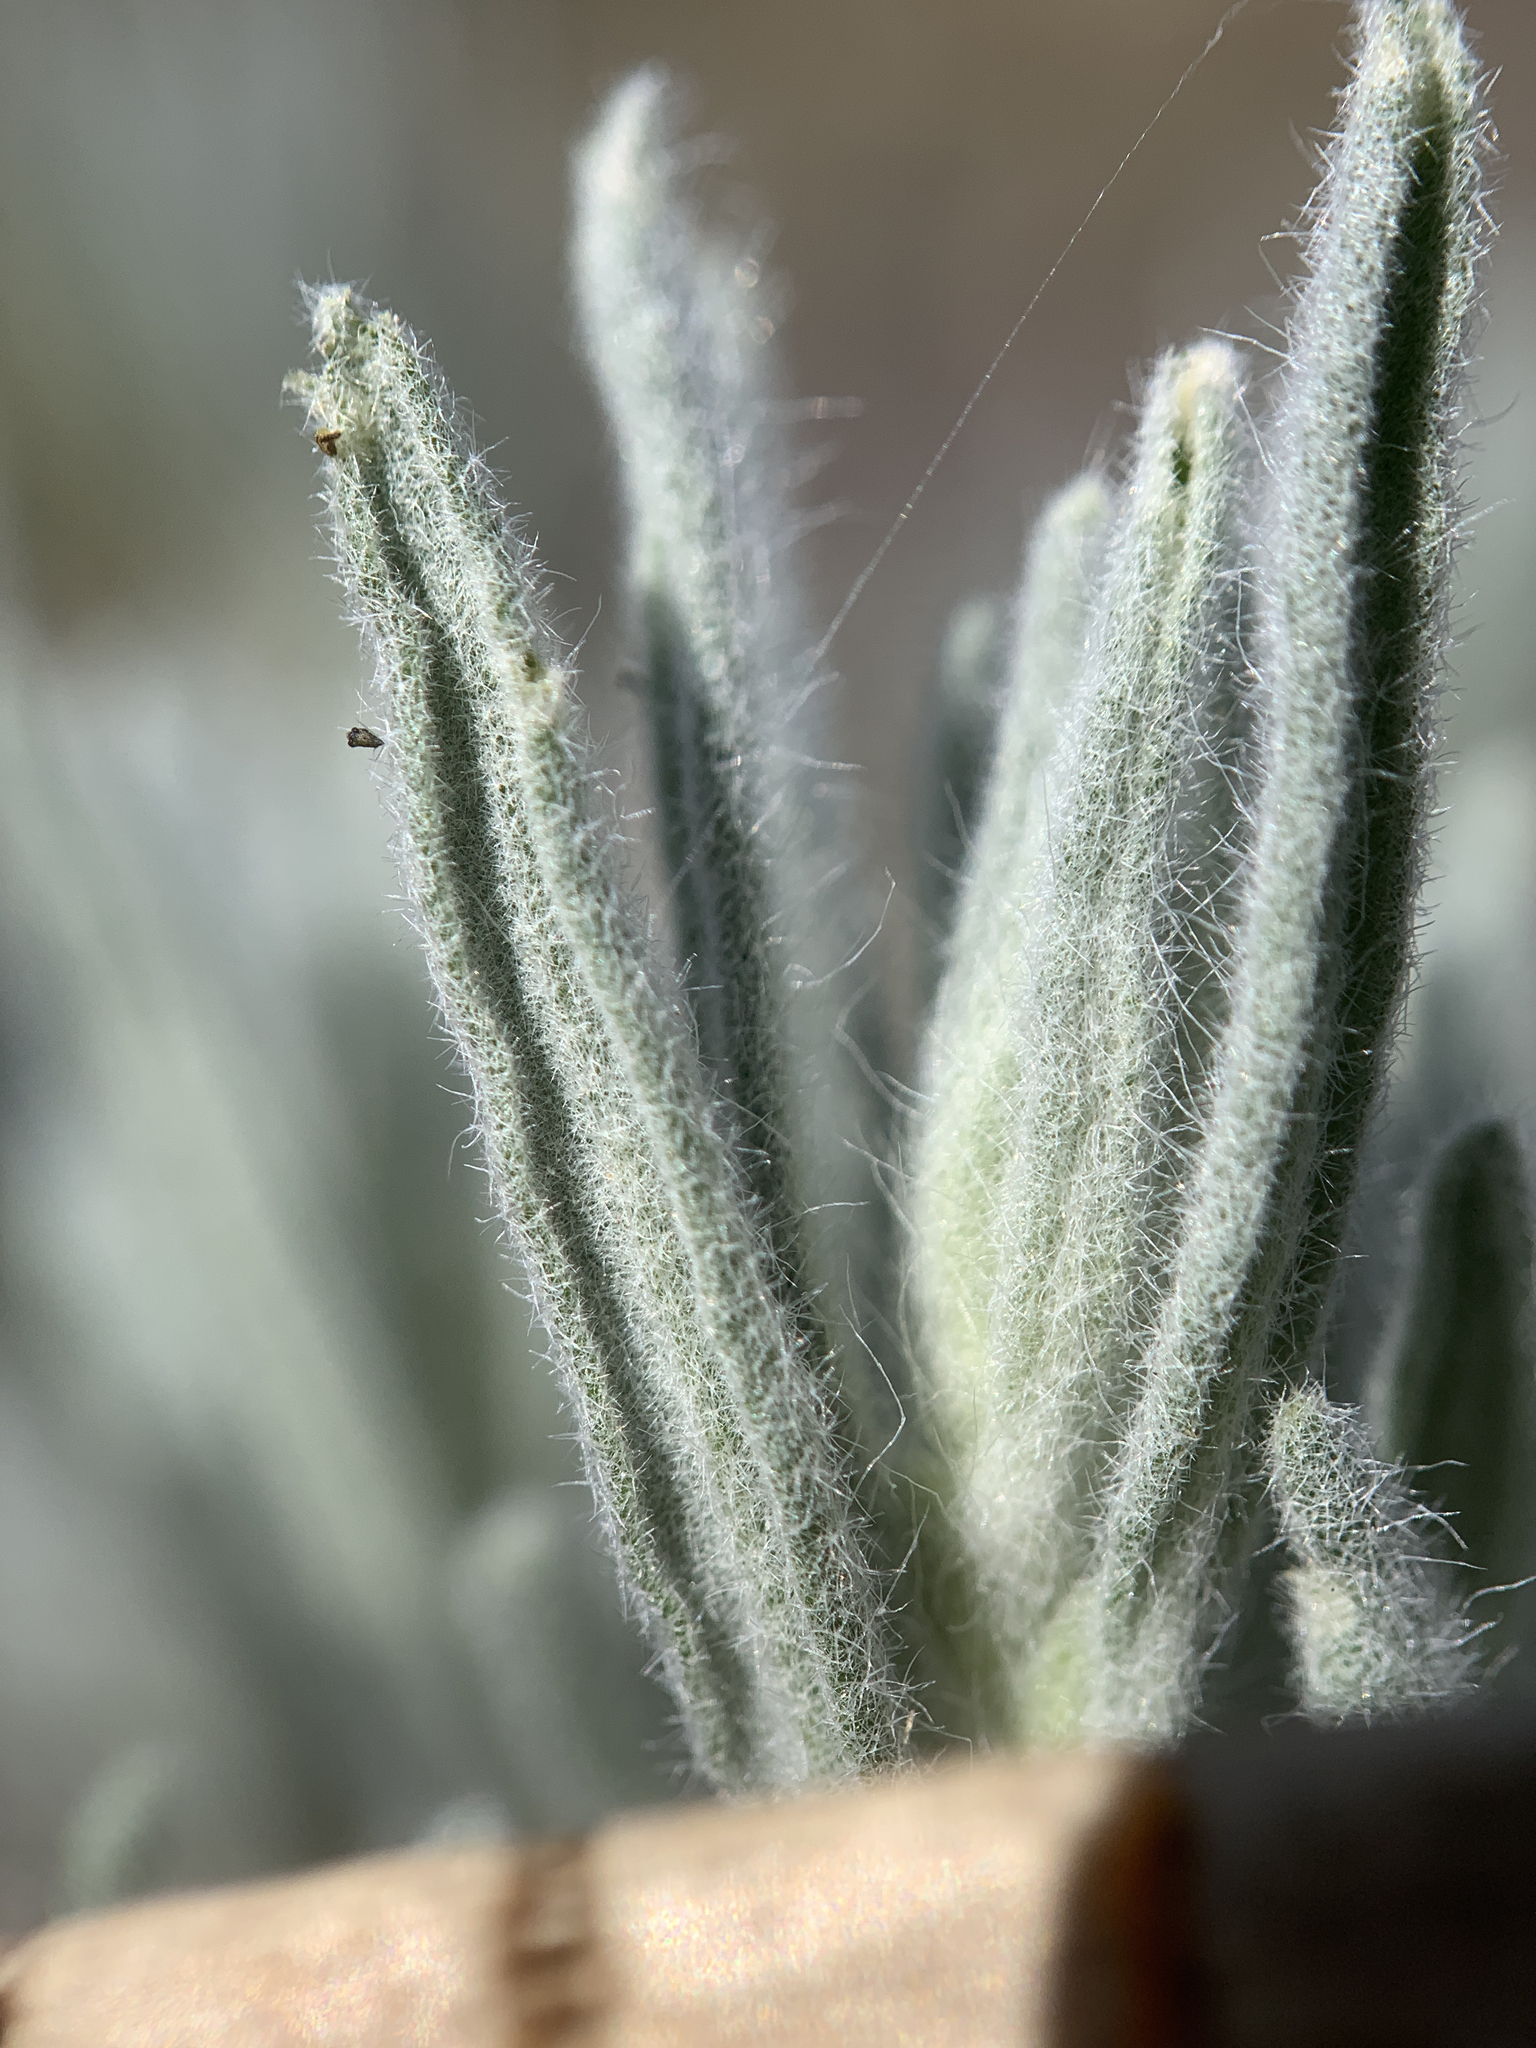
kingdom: Plantae
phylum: Tracheophyta
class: Magnoliopsida
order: Caryophyllales
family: Amaranthaceae
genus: Krascheninnikovia
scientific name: Krascheninnikovia lanata
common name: Winterfat
